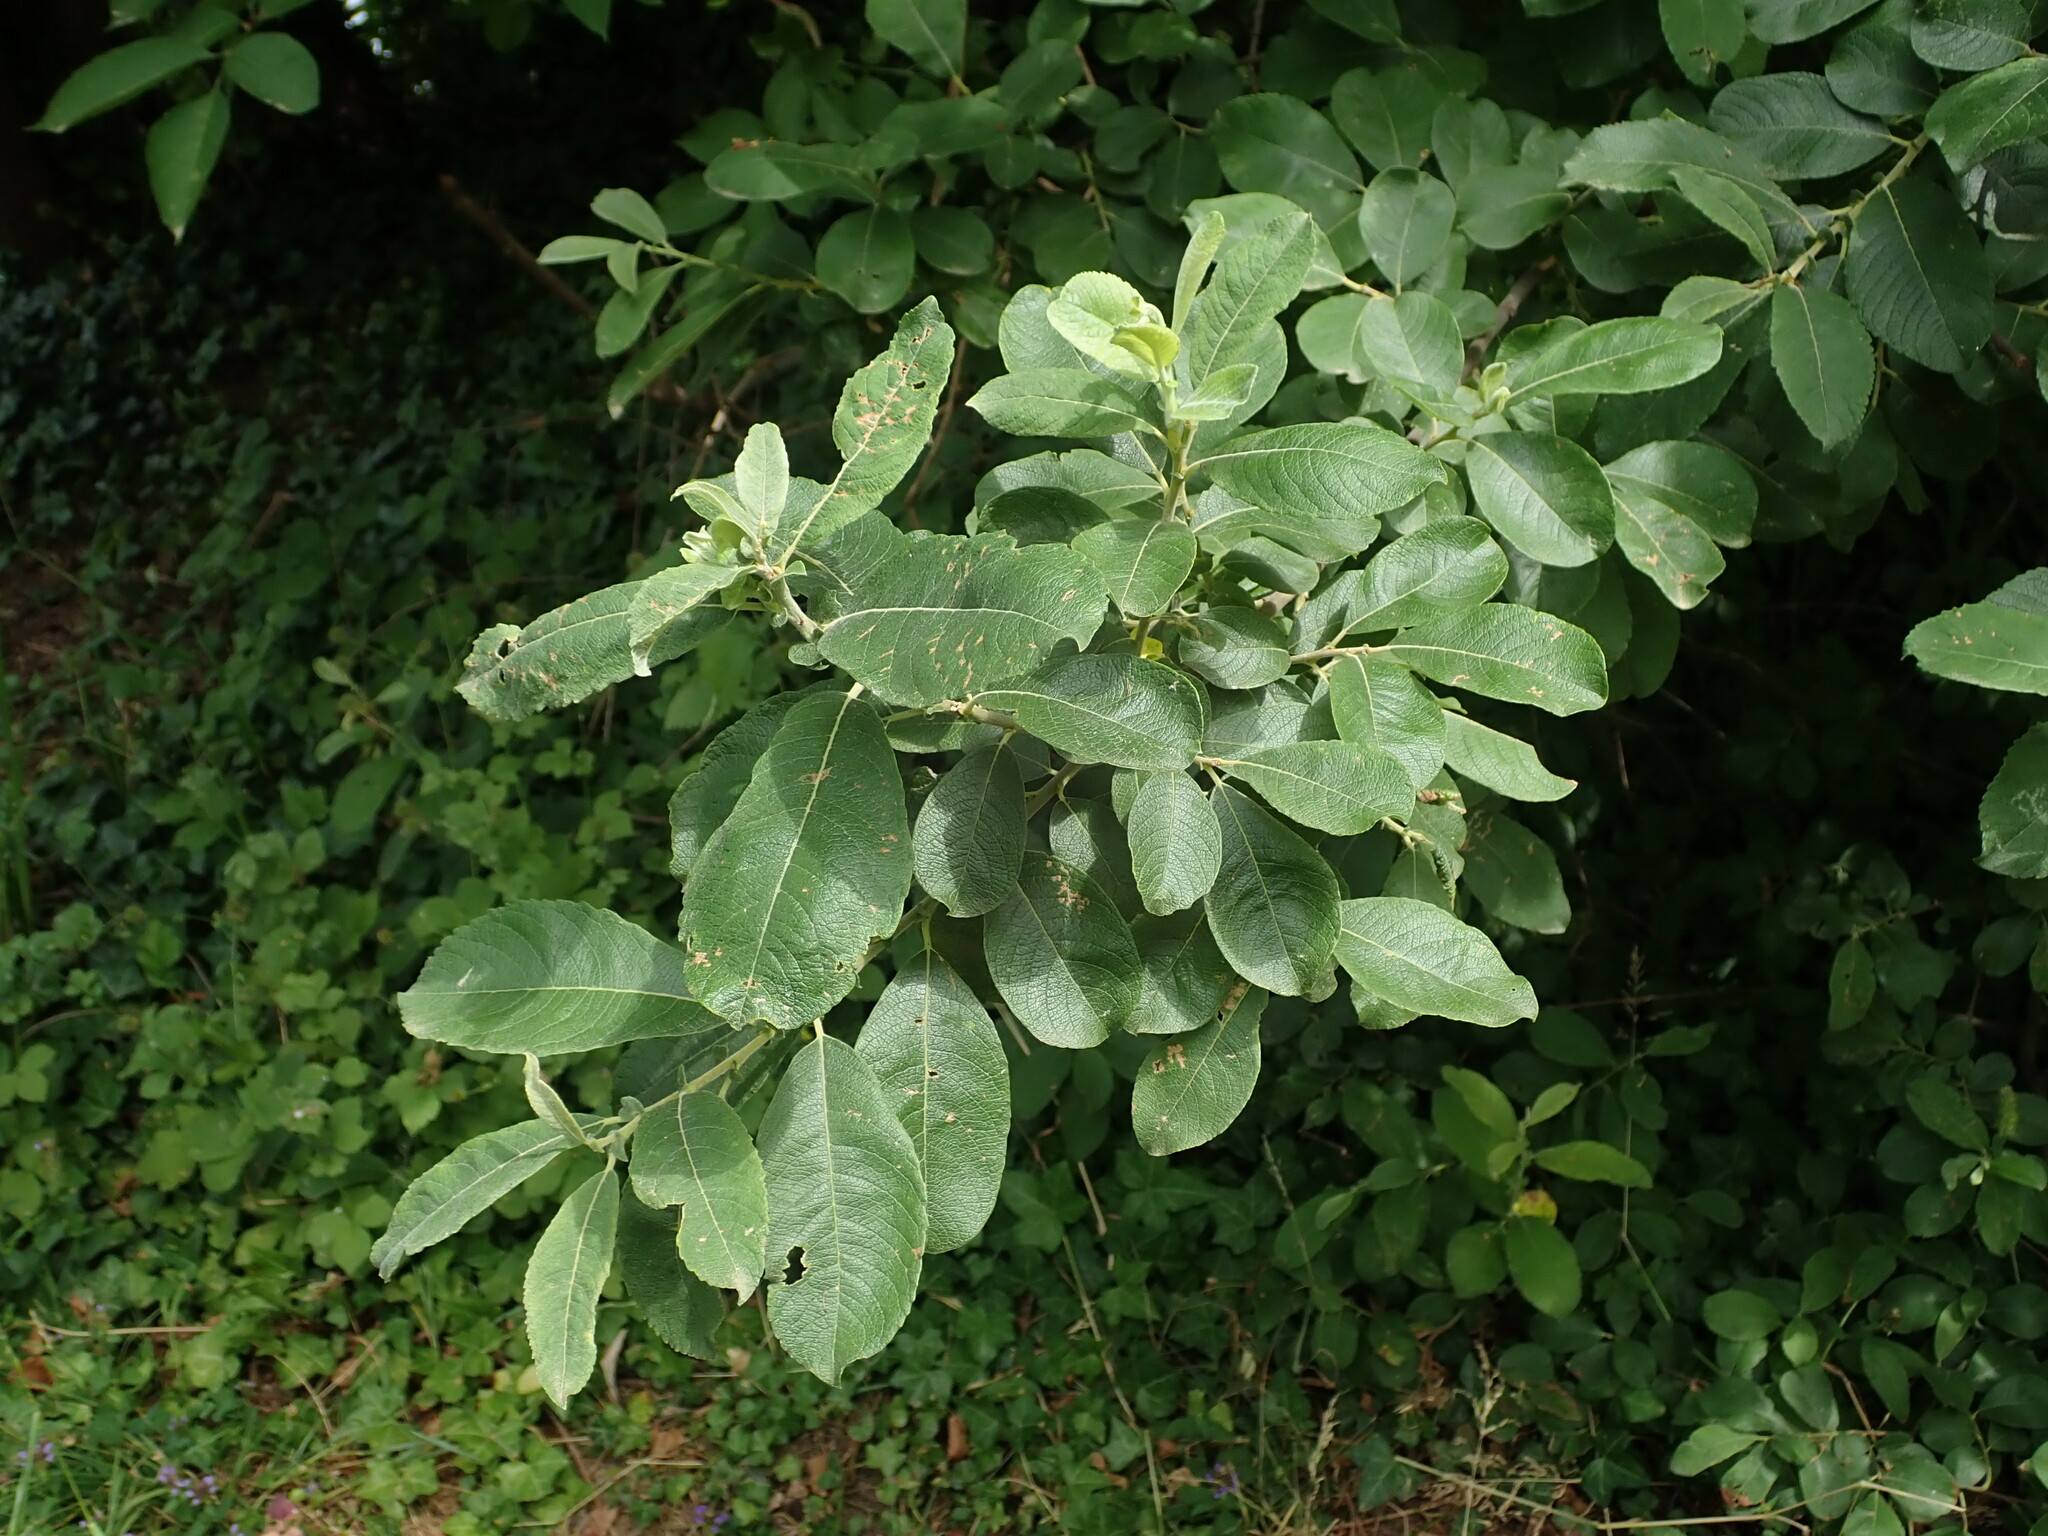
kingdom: Plantae
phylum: Tracheophyta
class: Magnoliopsida
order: Malpighiales
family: Salicaceae
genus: Salix
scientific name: Salix cinerea
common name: Common sallow
